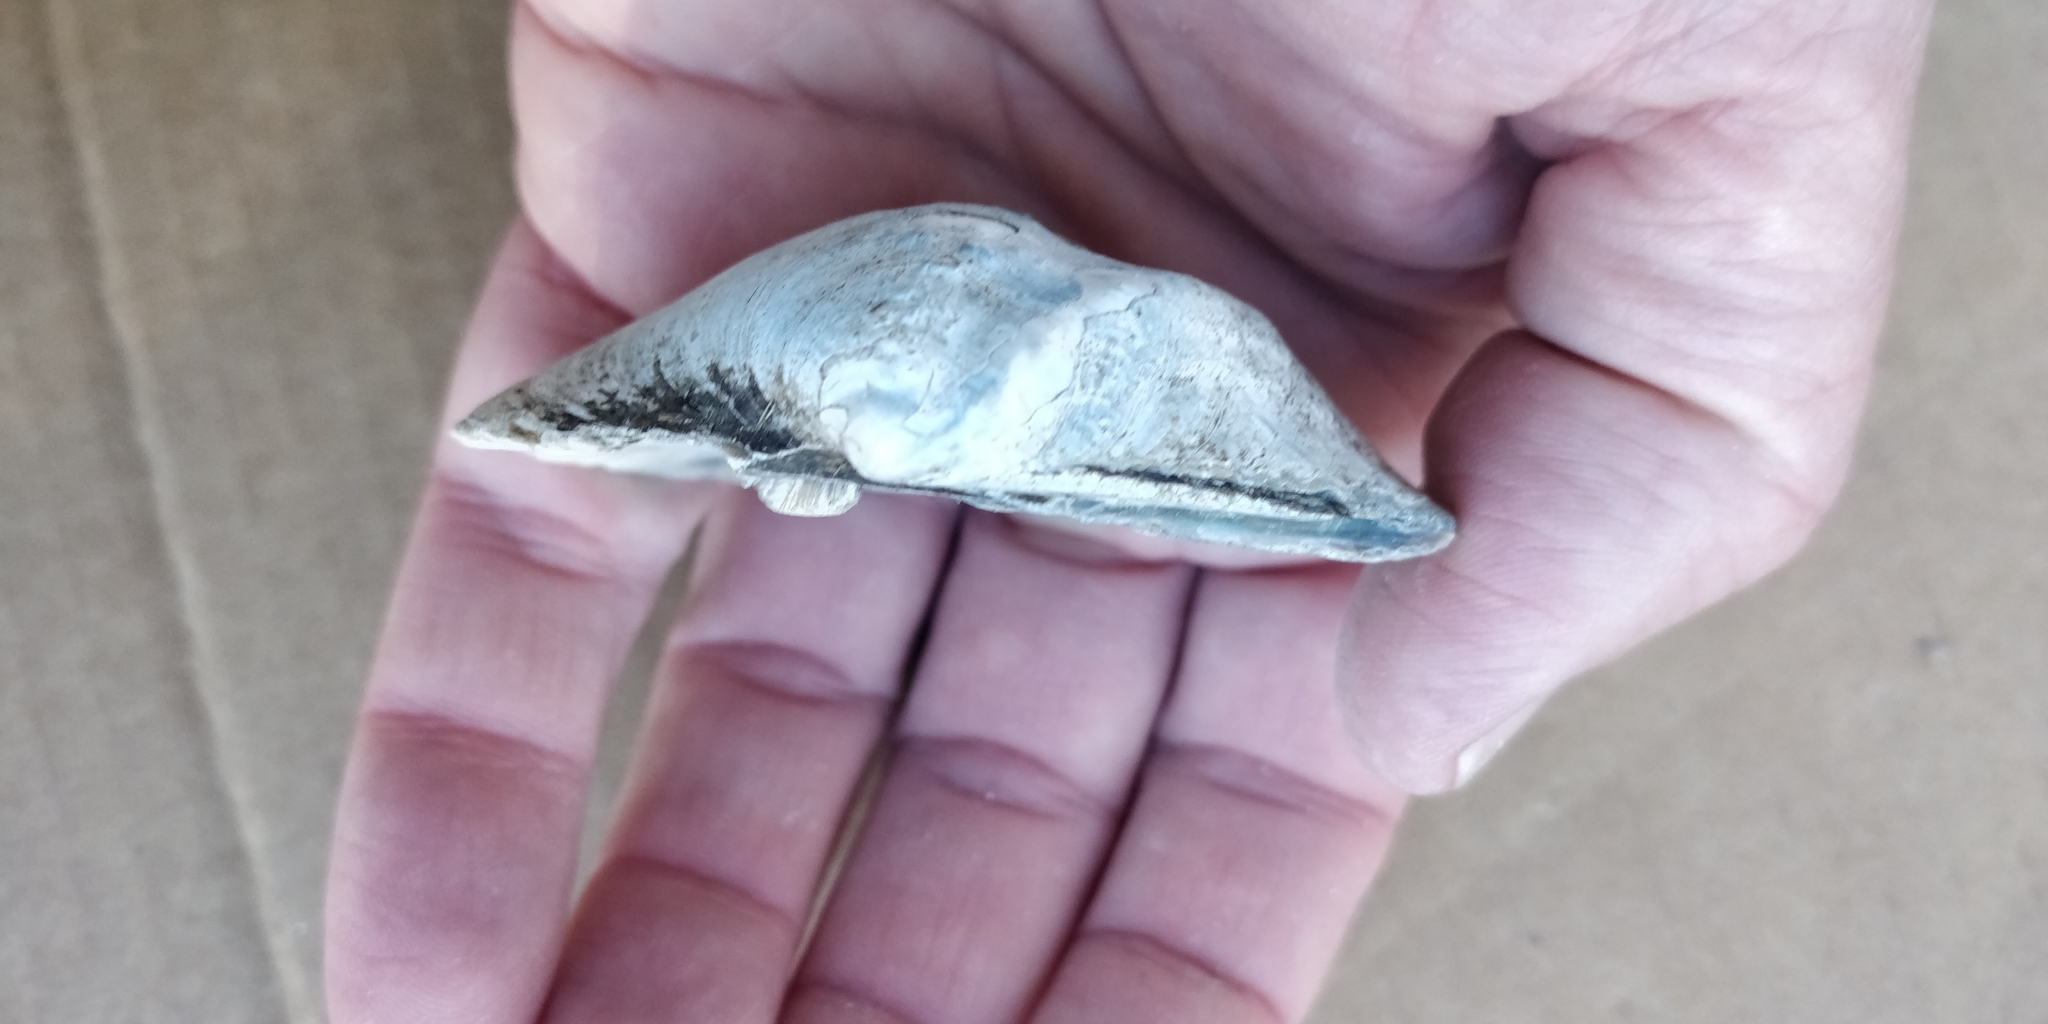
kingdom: Animalia
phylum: Mollusca
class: Bivalvia
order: Unionida
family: Unionidae
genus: Quadrula
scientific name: Quadrula quadrula
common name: Mapleleaf
